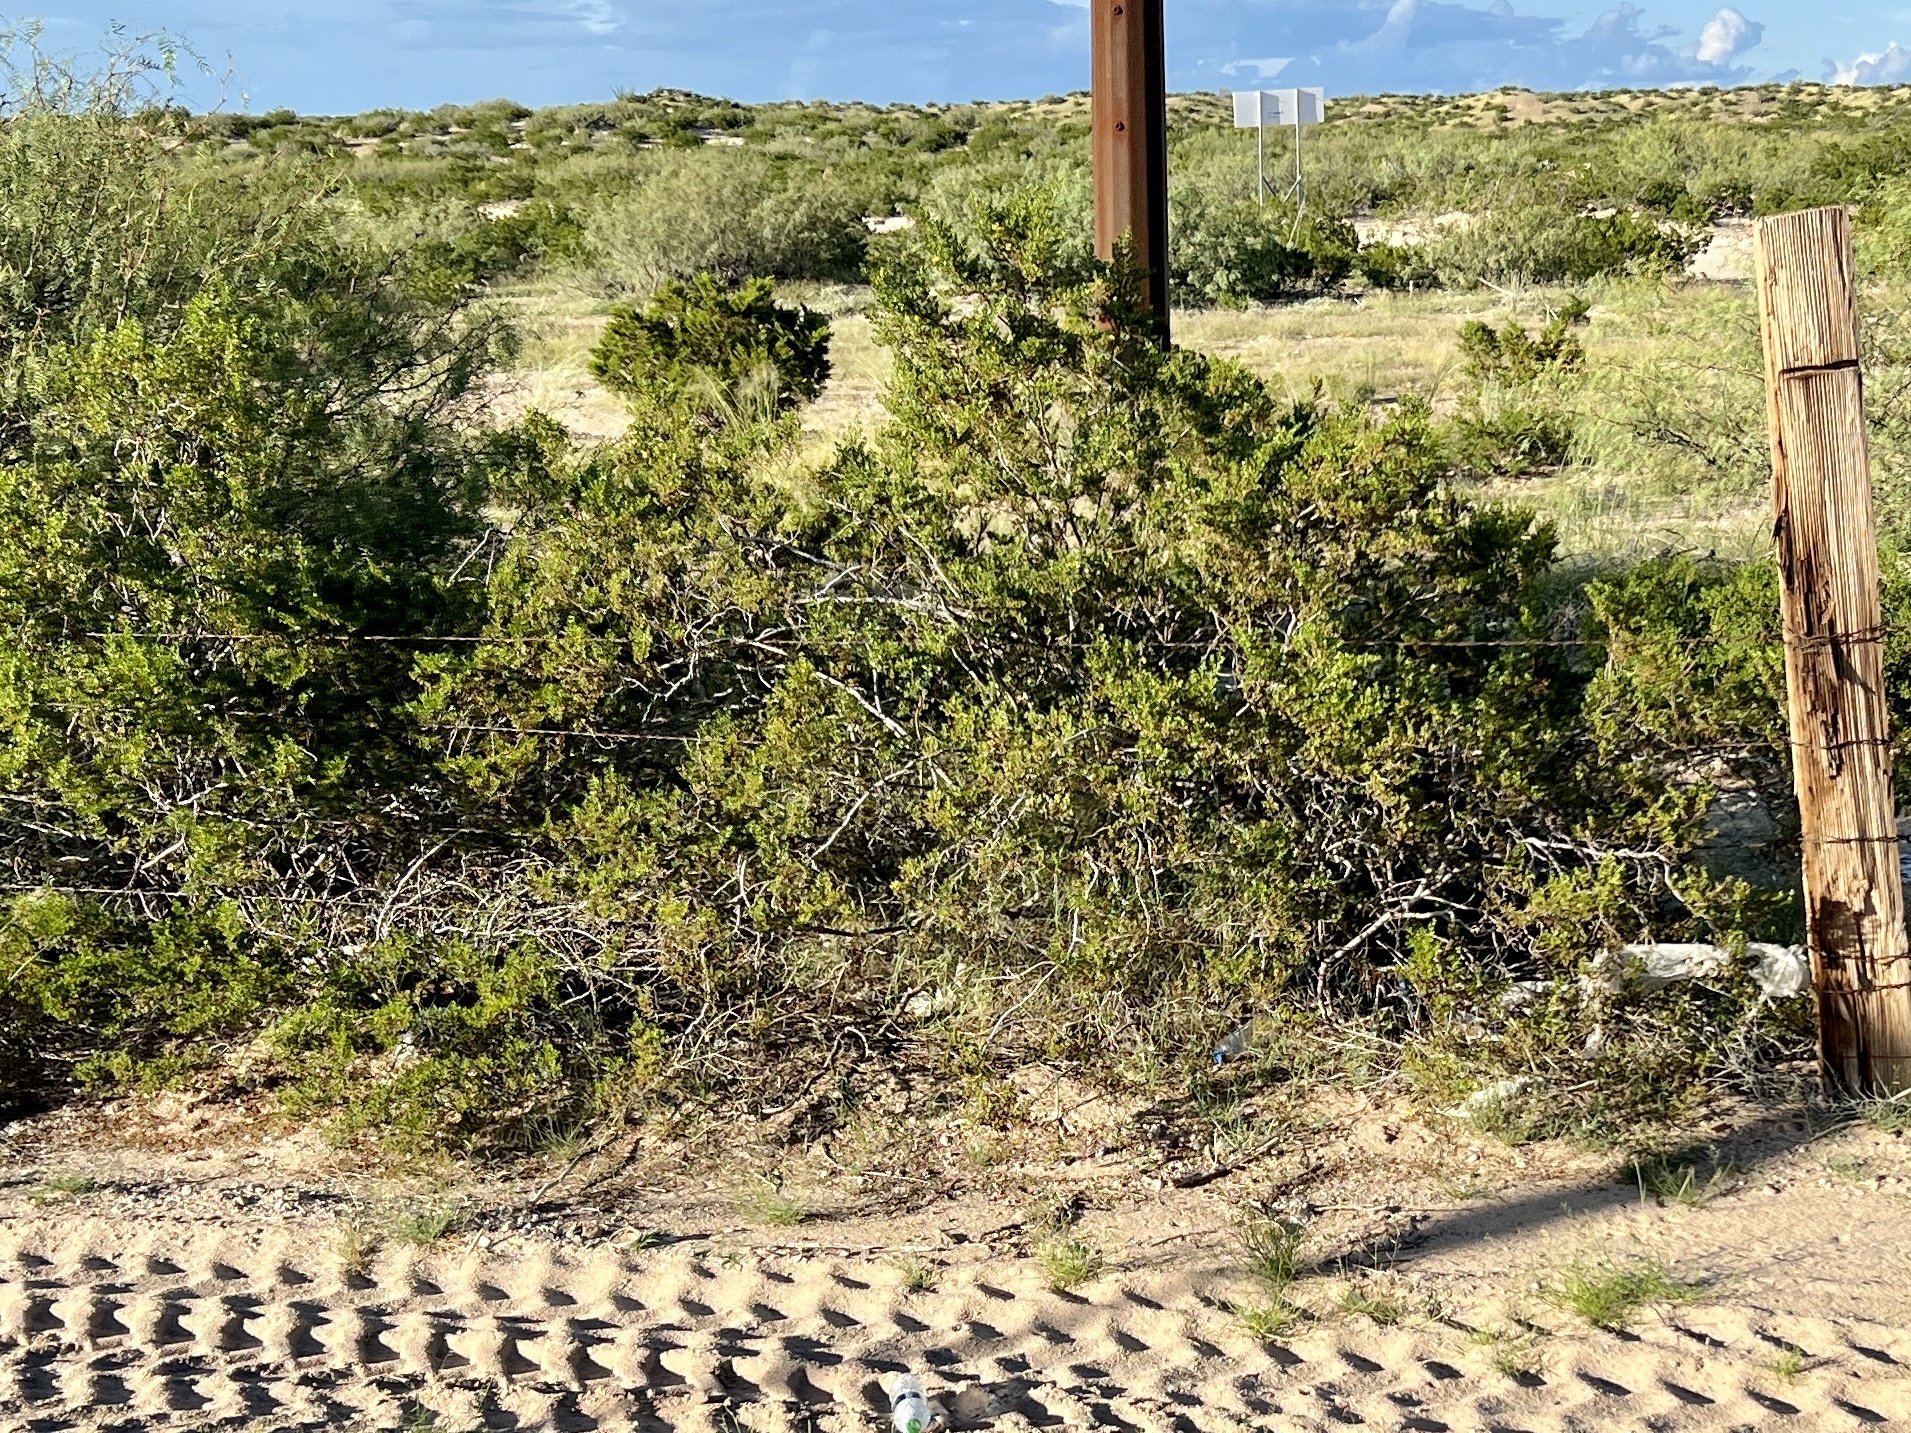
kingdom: Plantae
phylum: Tracheophyta
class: Magnoliopsida
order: Zygophyllales
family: Zygophyllaceae
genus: Larrea
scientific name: Larrea tridentata
